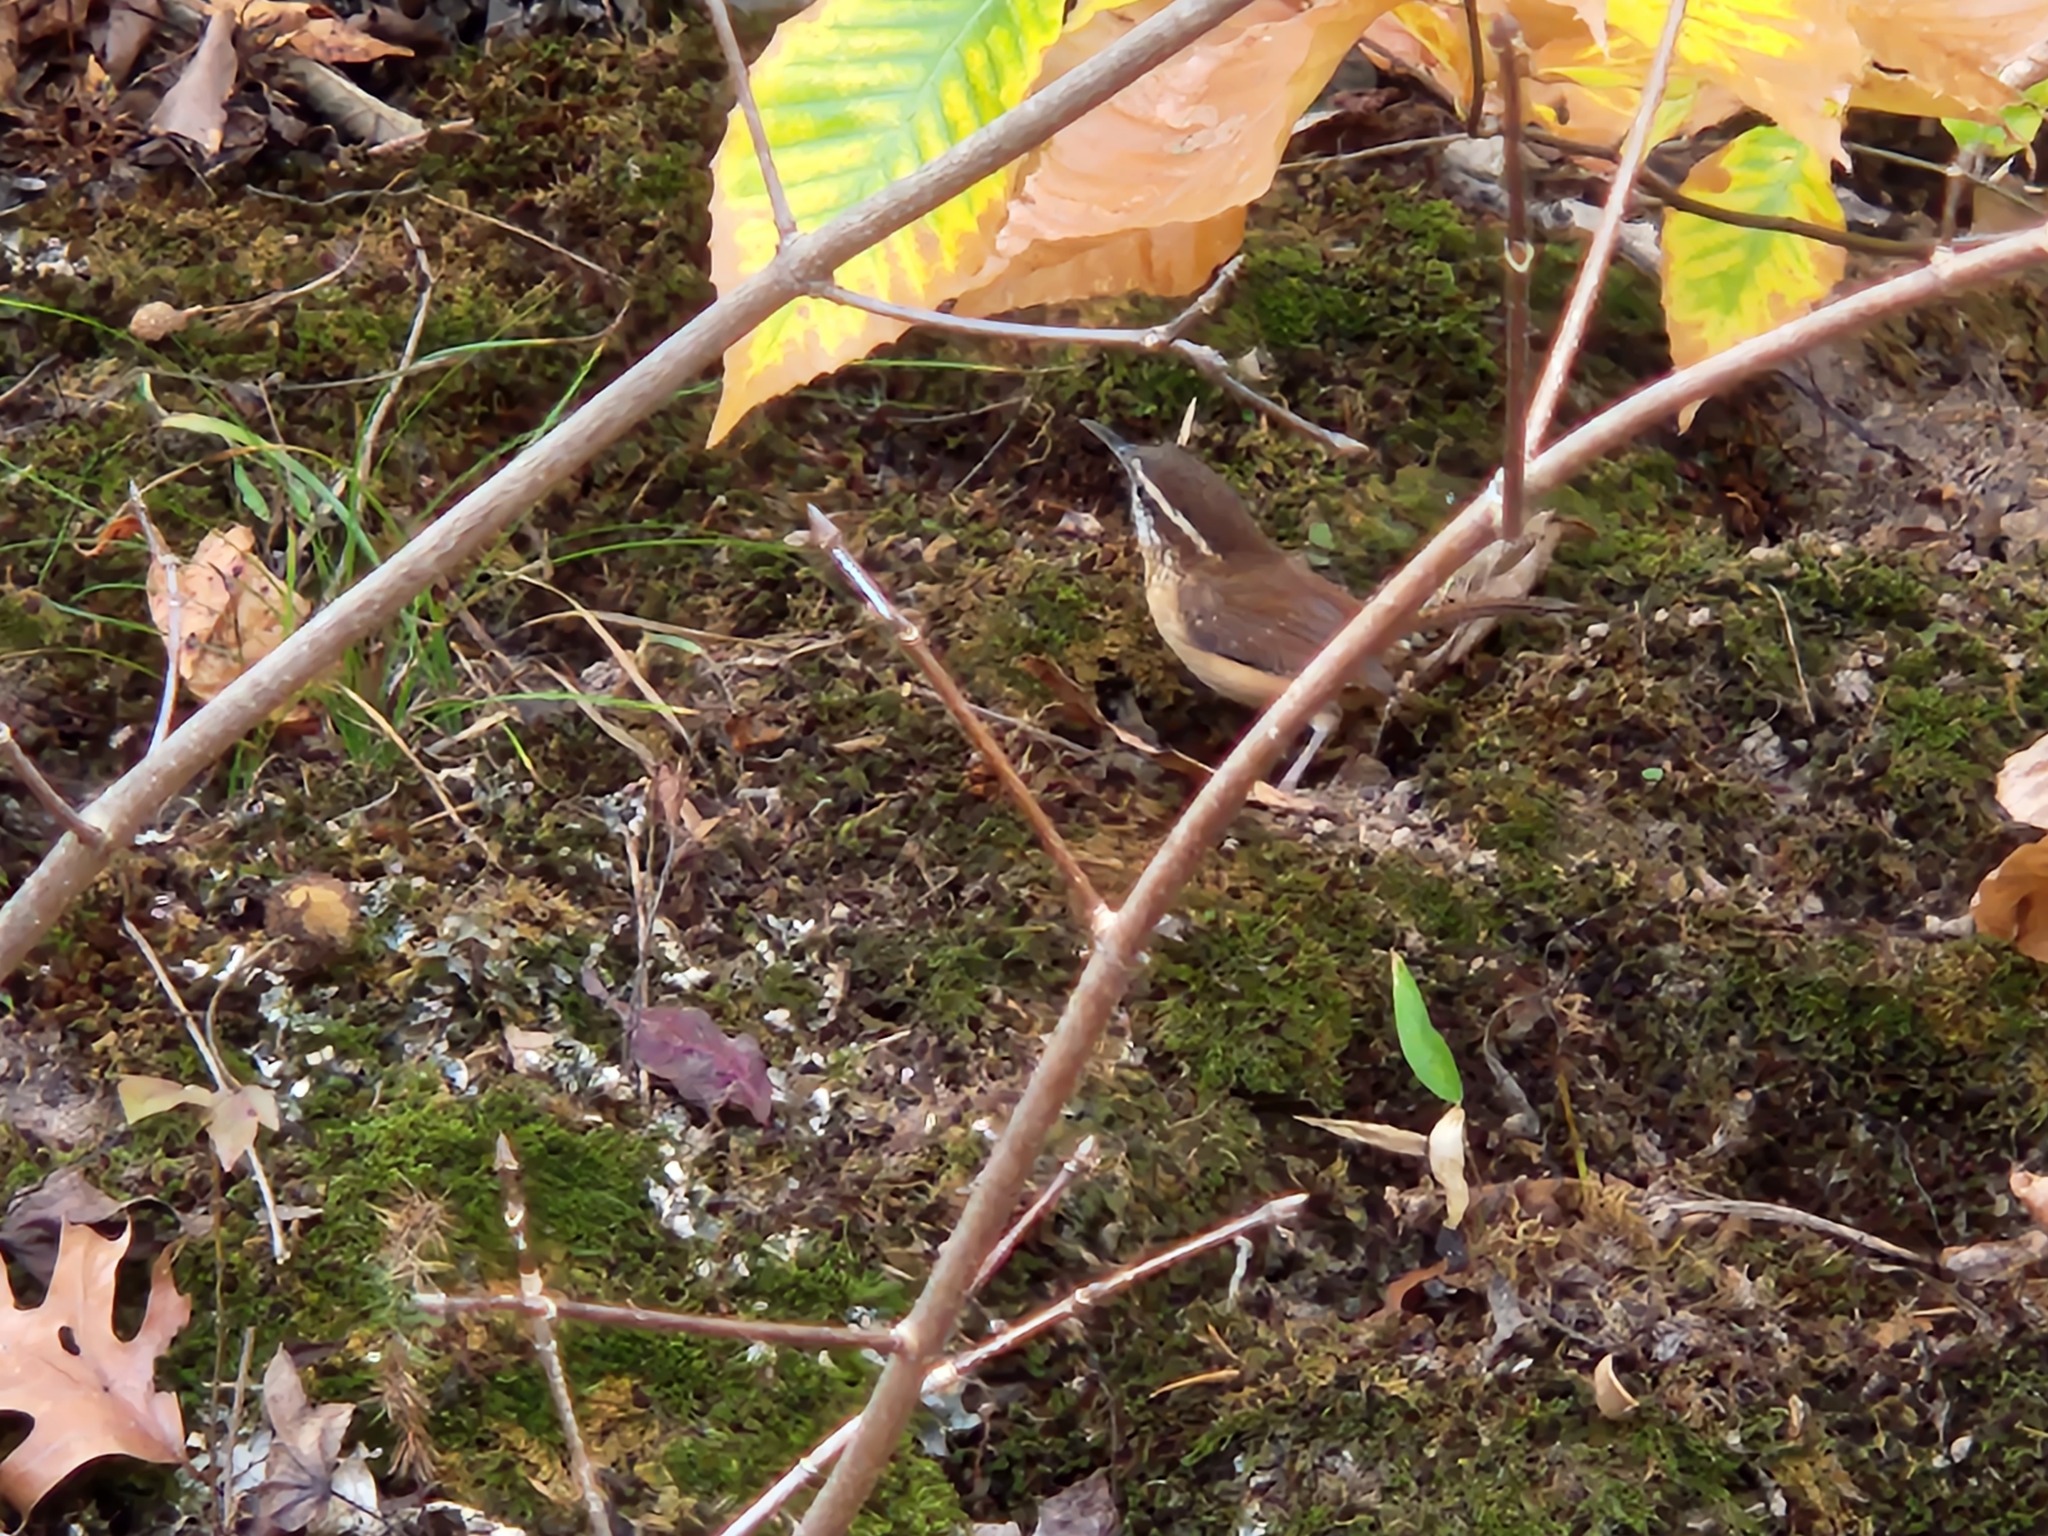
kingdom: Animalia
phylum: Chordata
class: Aves
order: Passeriformes
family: Troglodytidae
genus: Thryothorus
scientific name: Thryothorus ludovicianus
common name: Carolina wren
